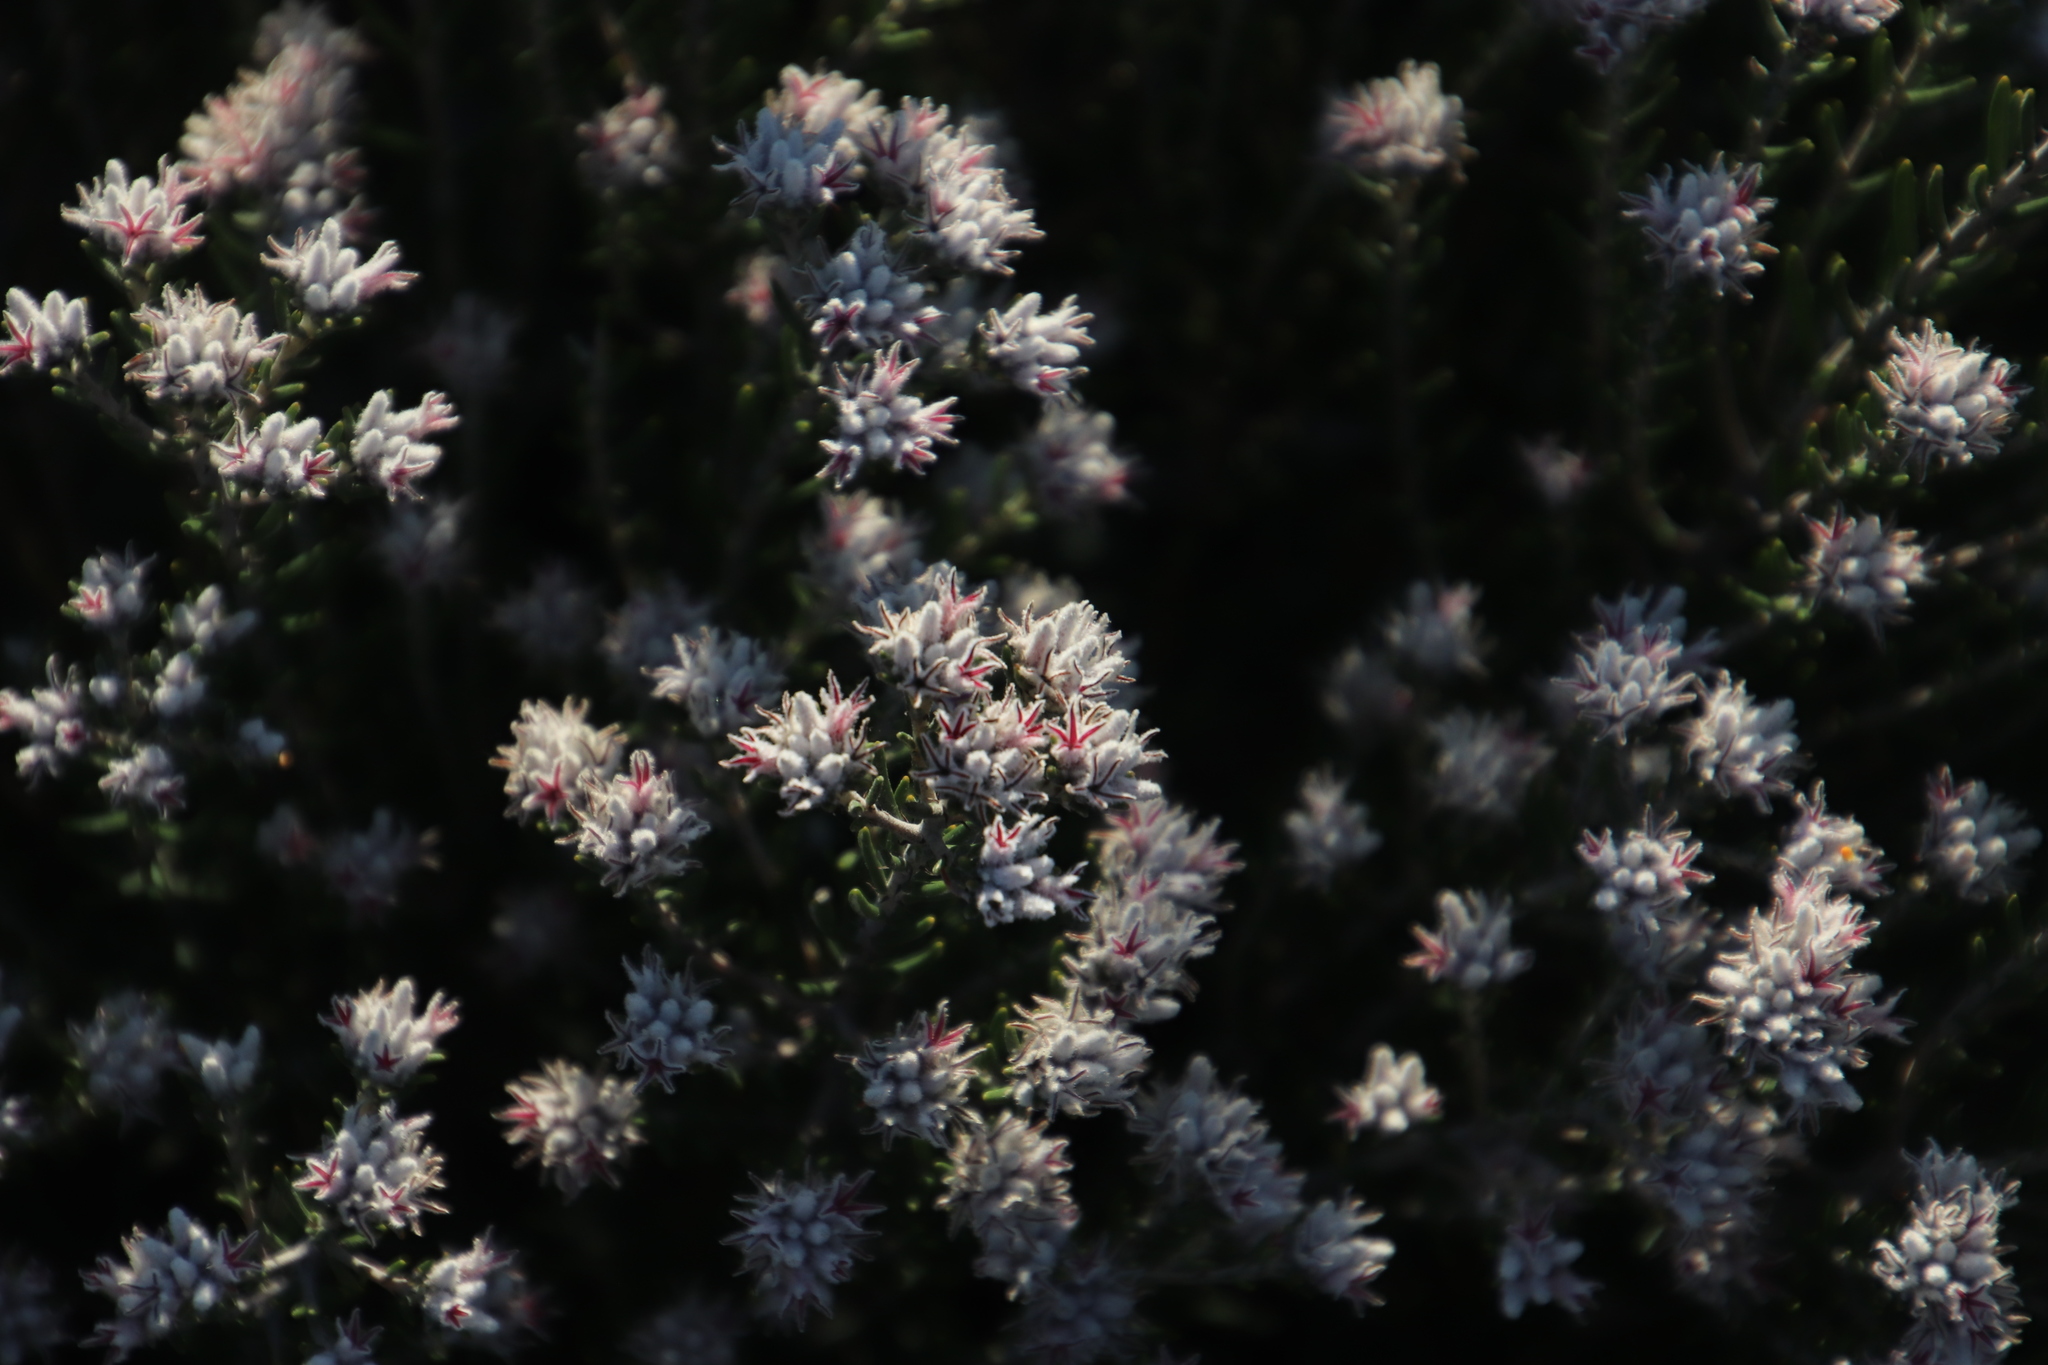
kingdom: Plantae
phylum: Tracheophyta
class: Magnoliopsida
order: Rosales
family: Rhamnaceae
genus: Trichocephalus
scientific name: Trichocephalus stipularis
